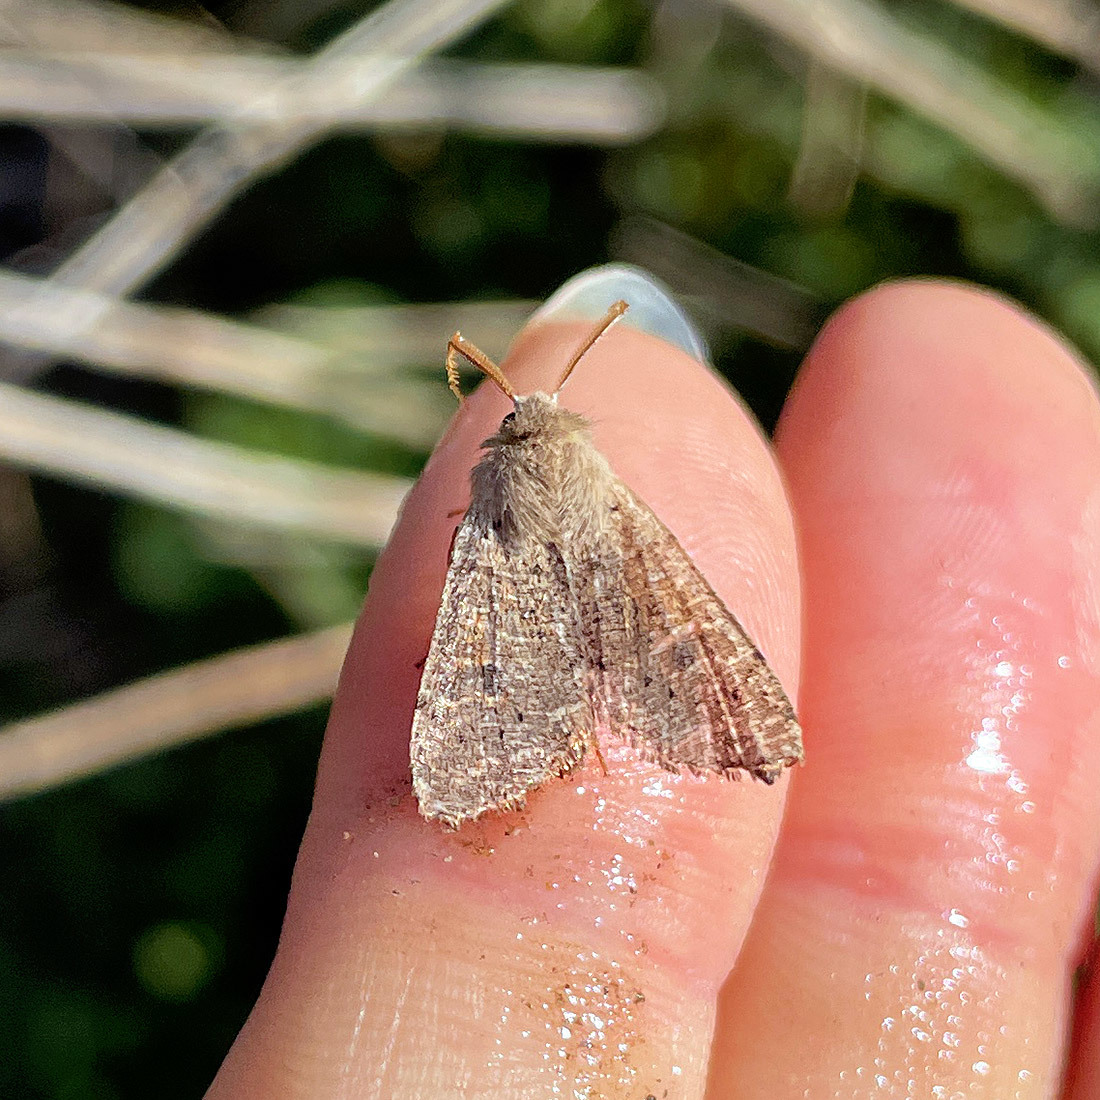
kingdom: Animalia
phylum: Arthropoda
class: Insecta
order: Lepidoptera
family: Noctuidae
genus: Orthosia
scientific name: Orthosia cruda
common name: Small quaker
